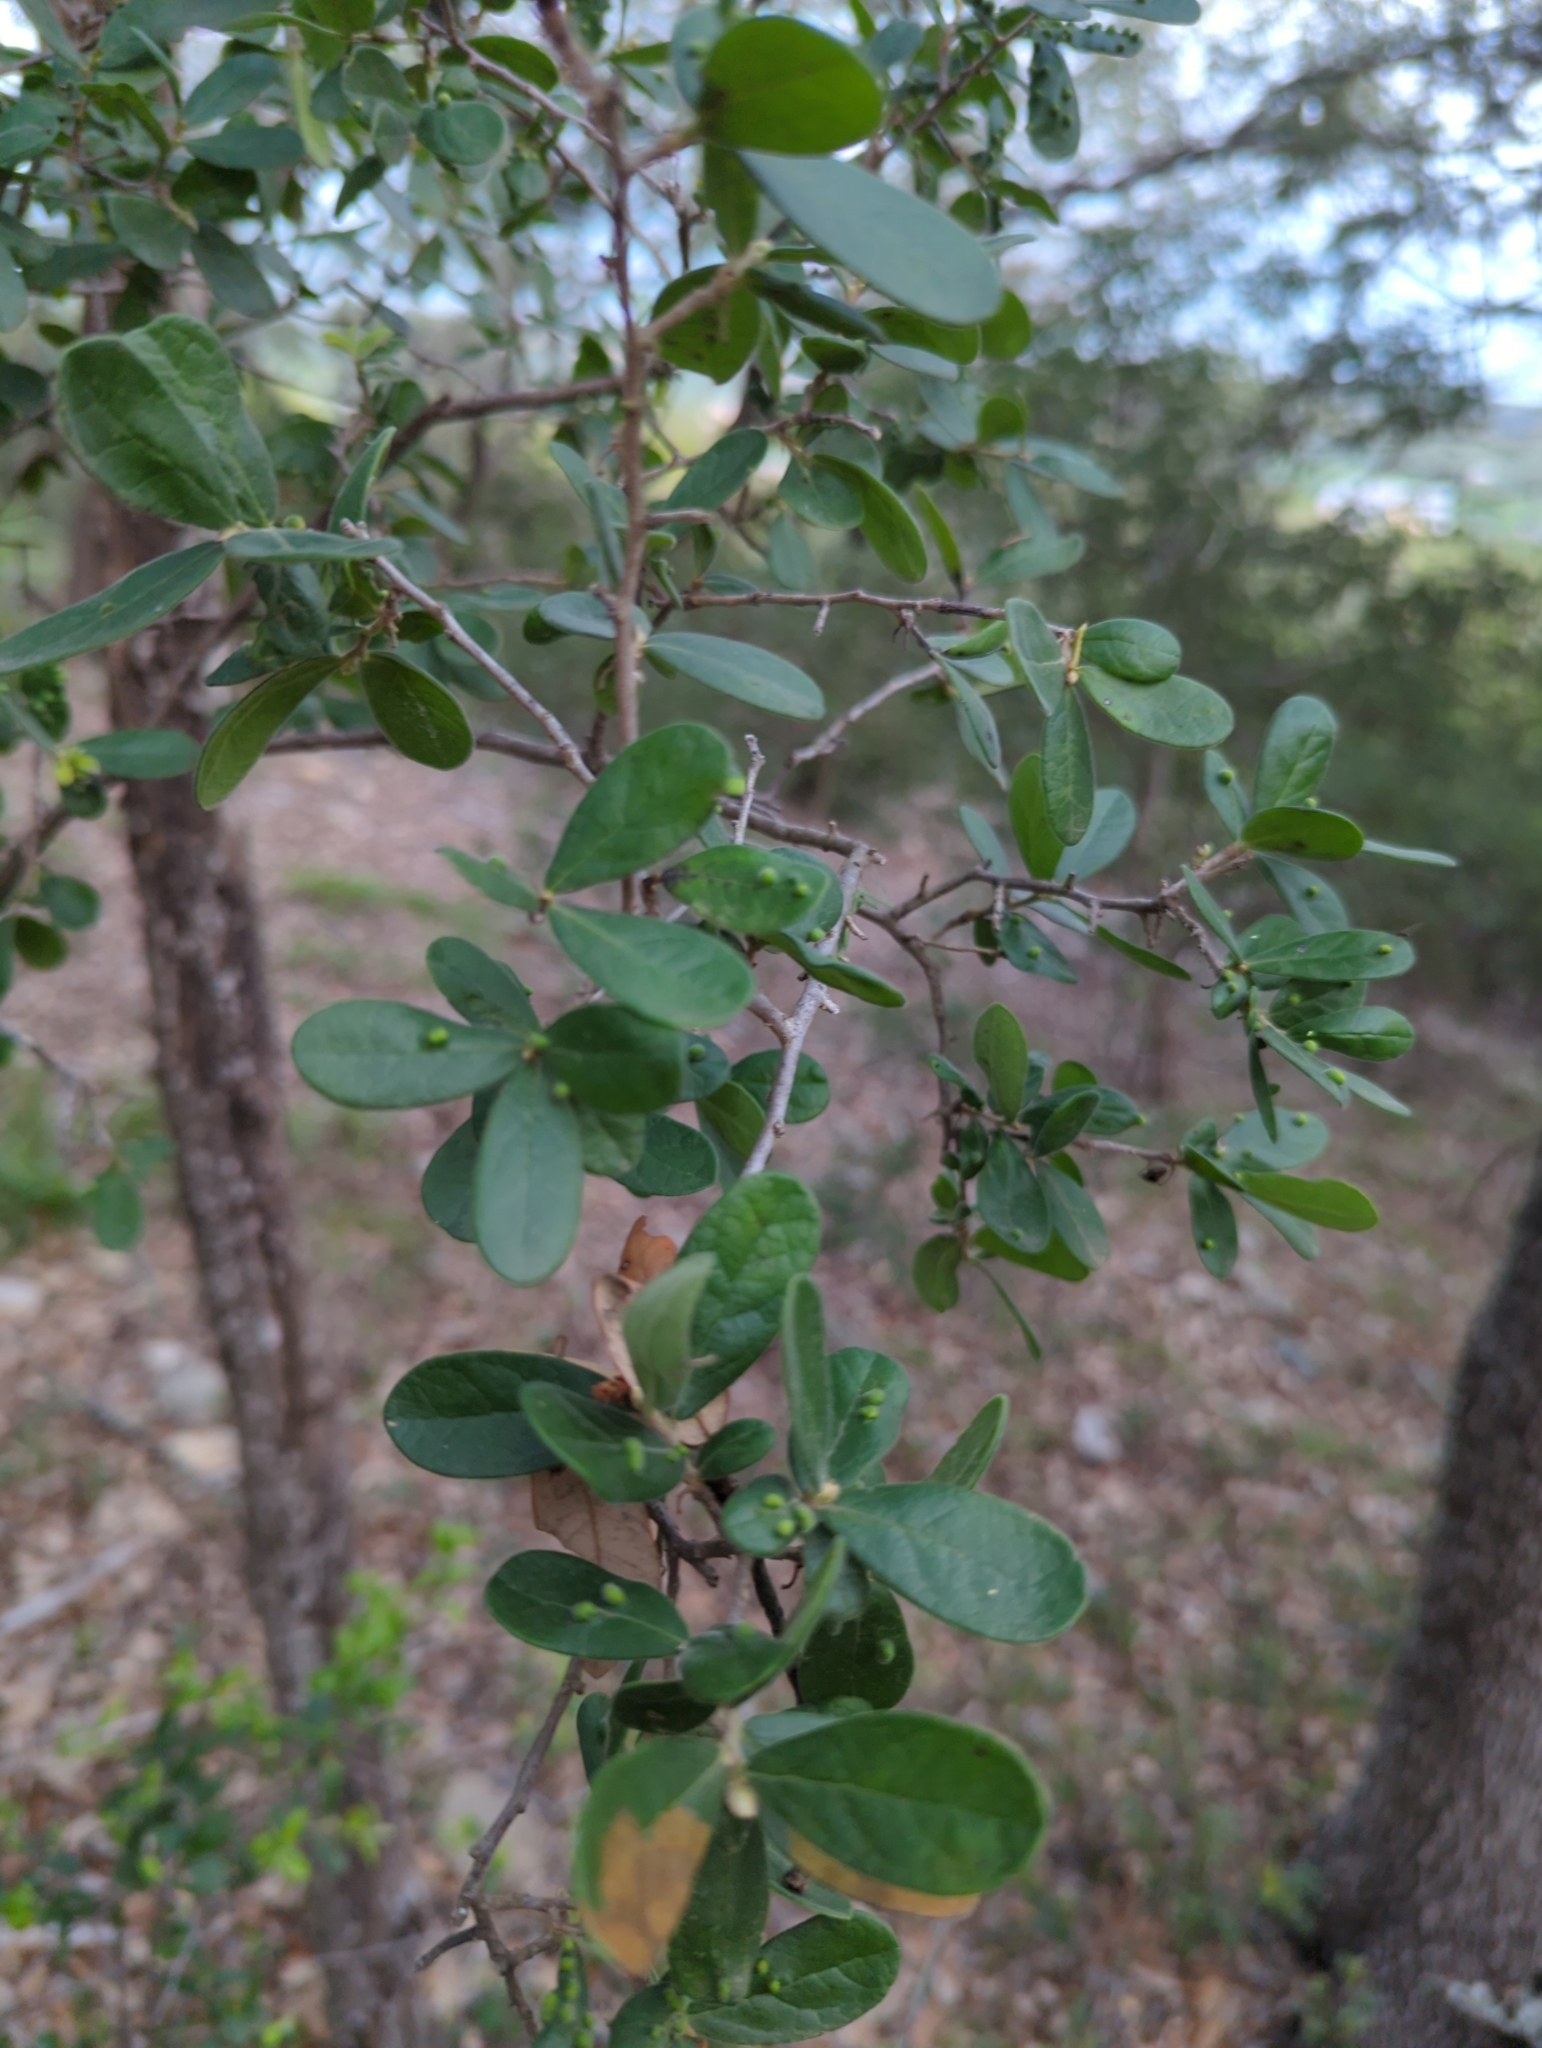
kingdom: Plantae
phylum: Tracheophyta
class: Magnoliopsida
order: Ericales
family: Ebenaceae
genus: Diospyros
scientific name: Diospyros texana
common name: Texas persimmon
